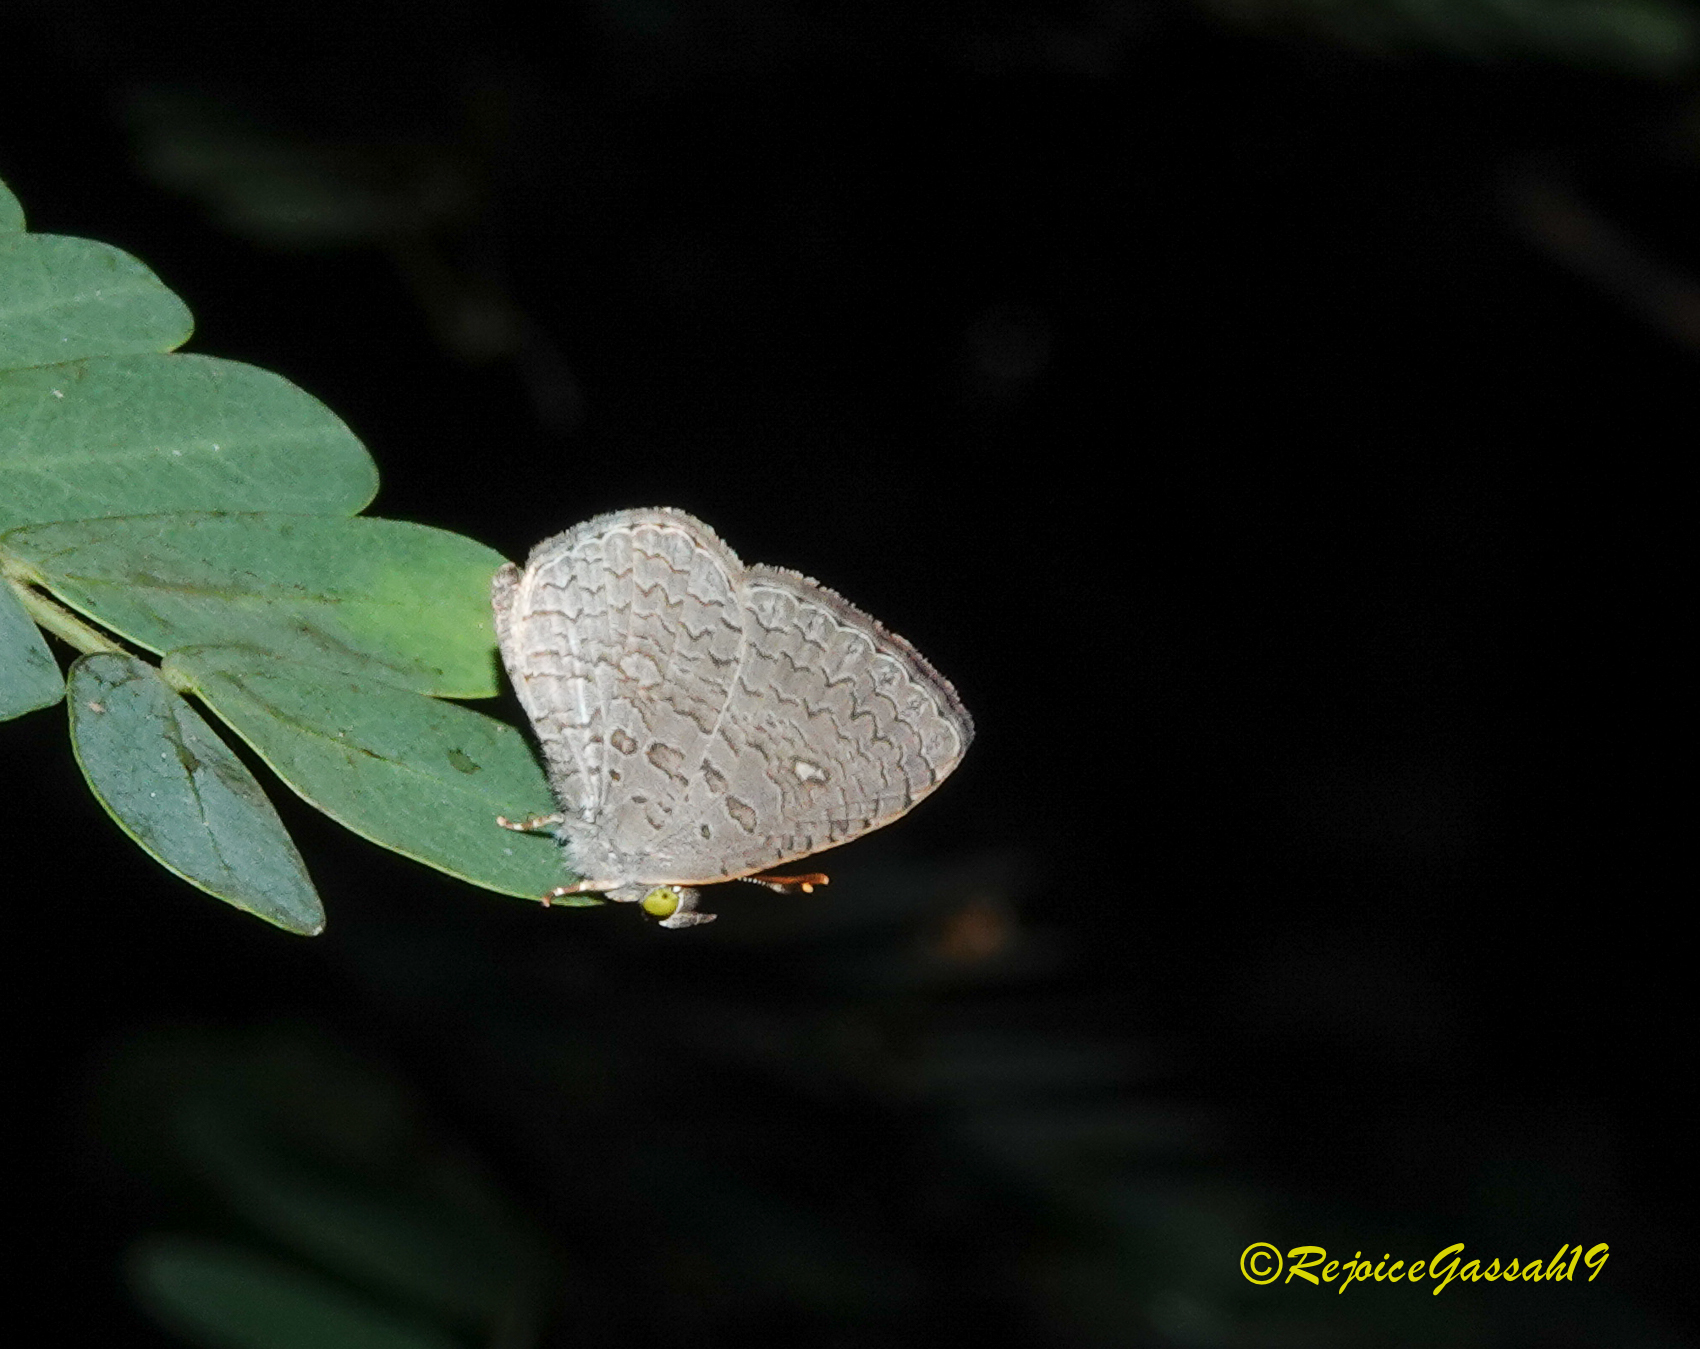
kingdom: Animalia
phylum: Arthropoda
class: Insecta
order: Lepidoptera
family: Lycaenidae
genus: Spalgis
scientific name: Spalgis epius
